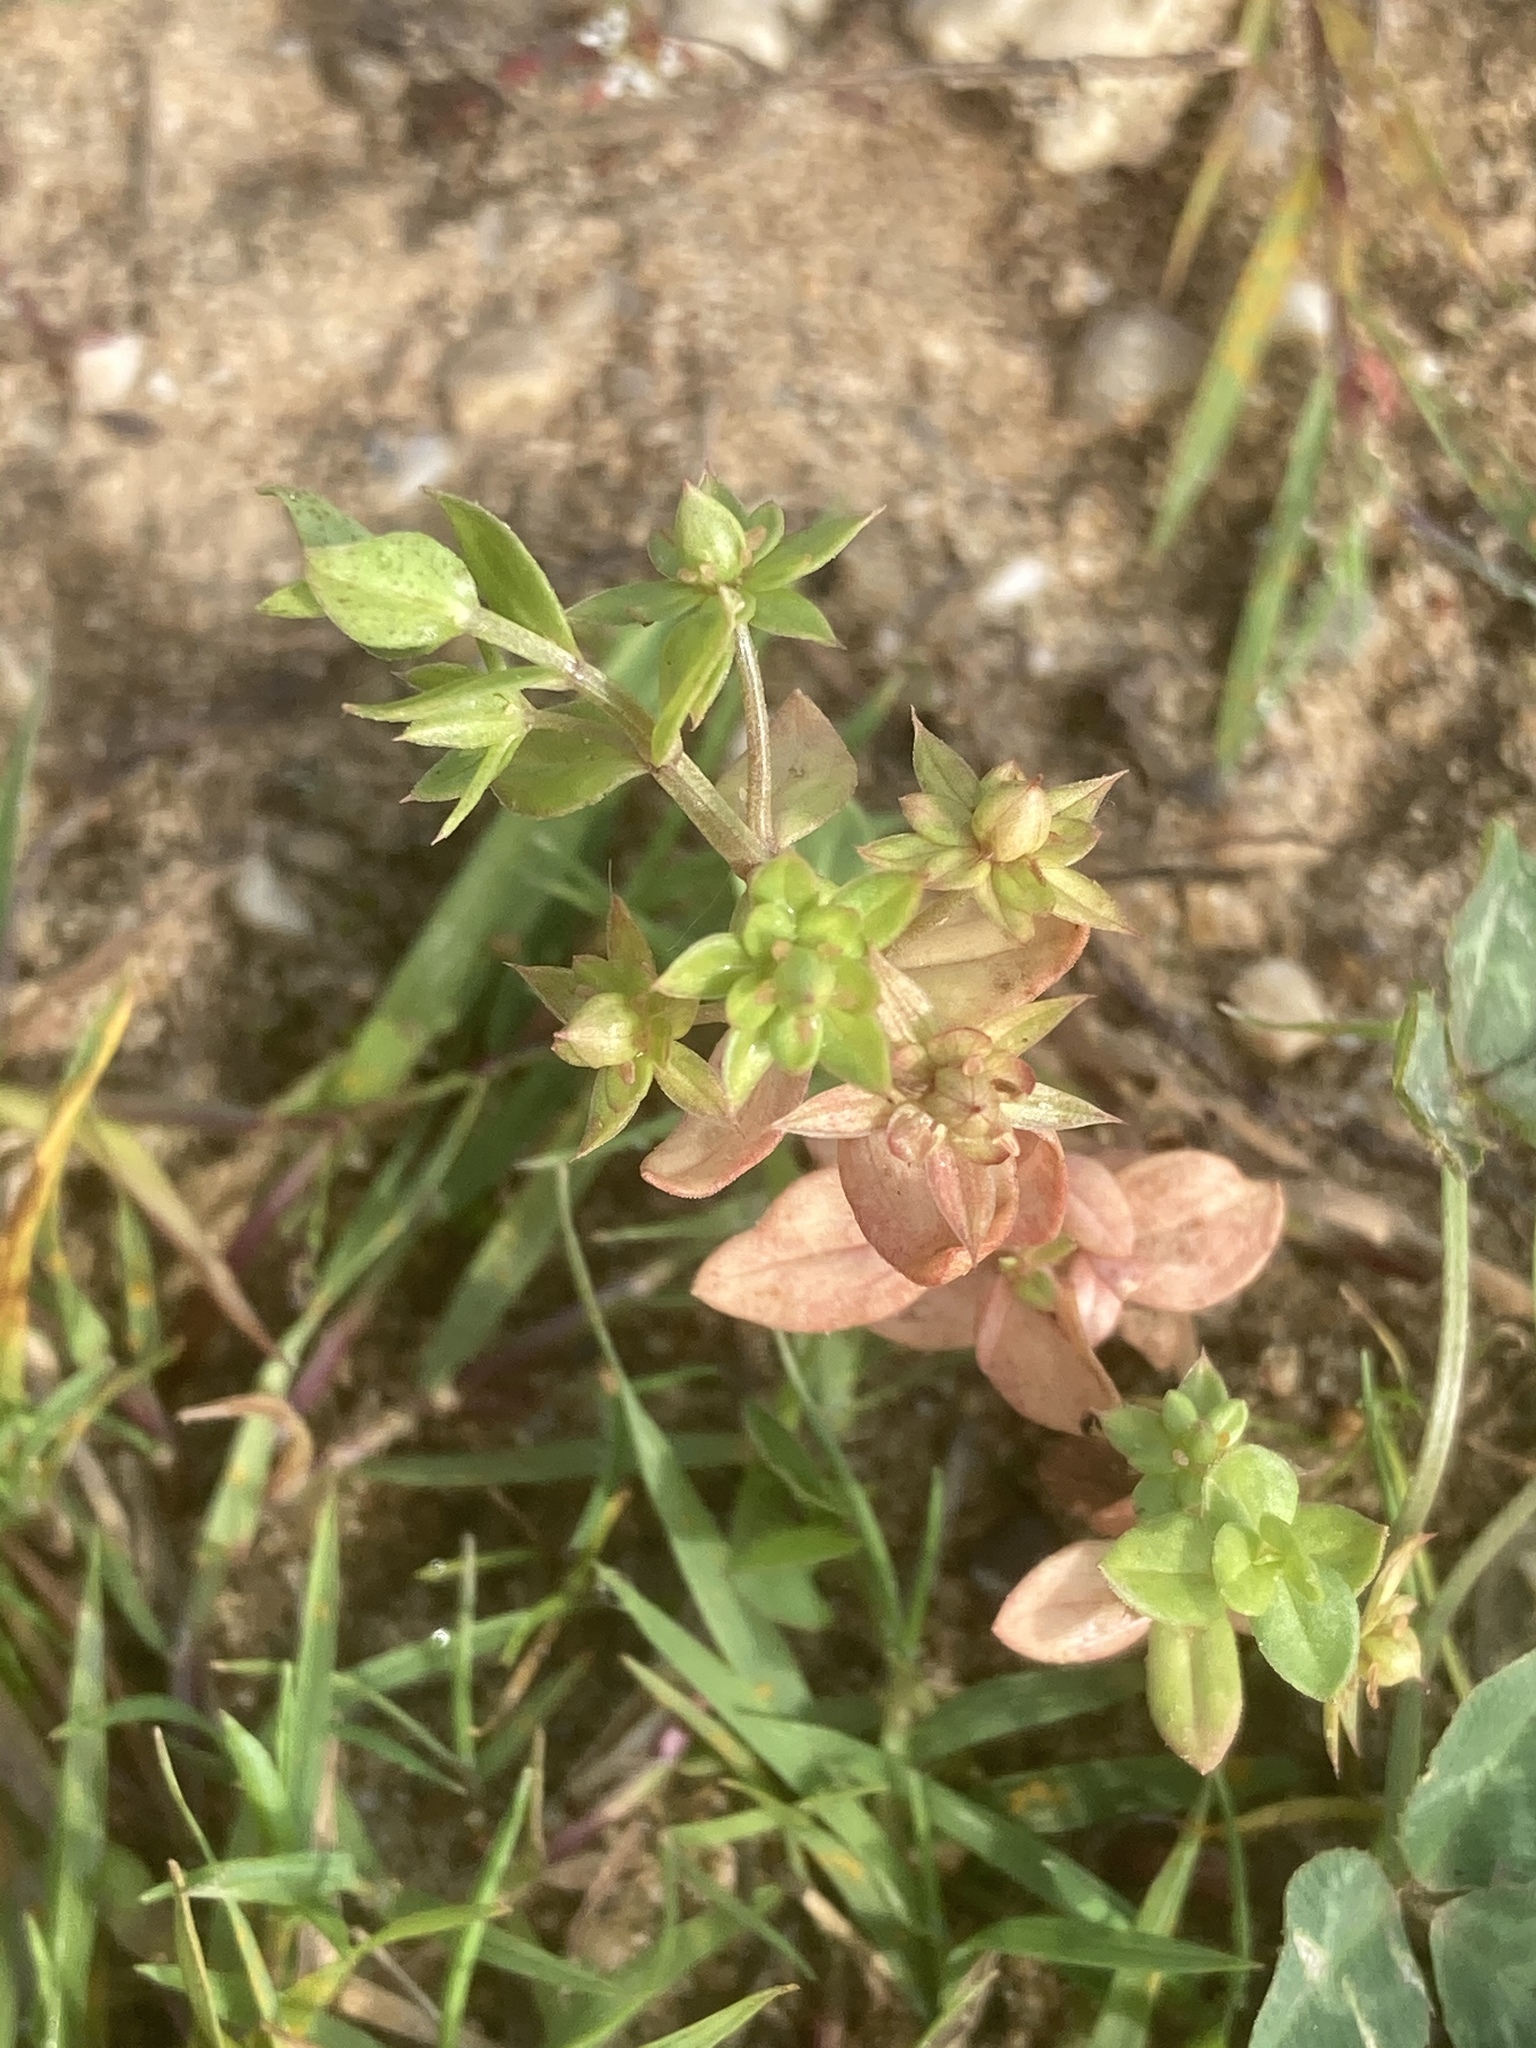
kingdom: Plantae
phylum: Tracheophyta
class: Magnoliopsida
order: Ericales
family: Primulaceae
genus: Lysimachia
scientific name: Lysimachia arvensis
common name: Scarlet pimpernel
